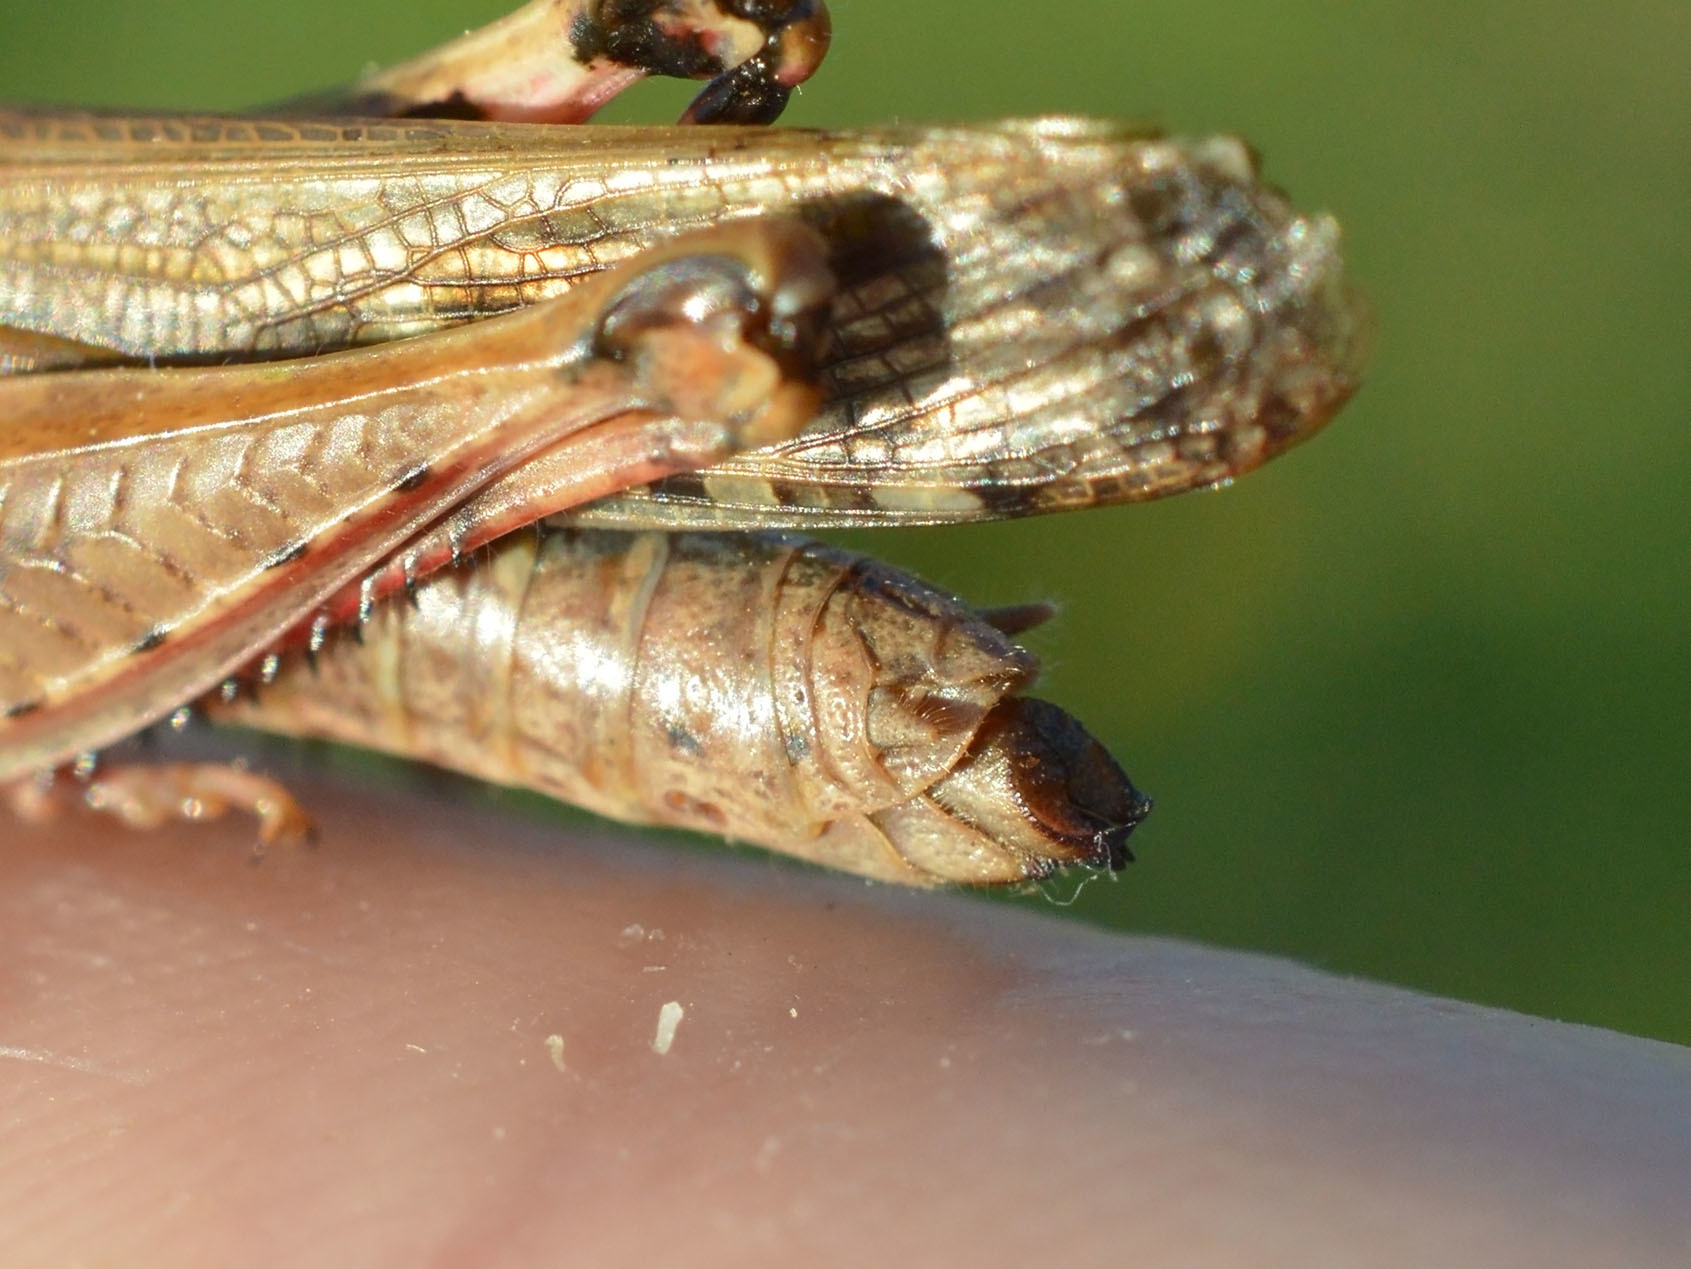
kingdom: Animalia
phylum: Arthropoda
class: Insecta
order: Orthoptera
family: Acrididae
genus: Aiolopus
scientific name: Aiolopus strepens
